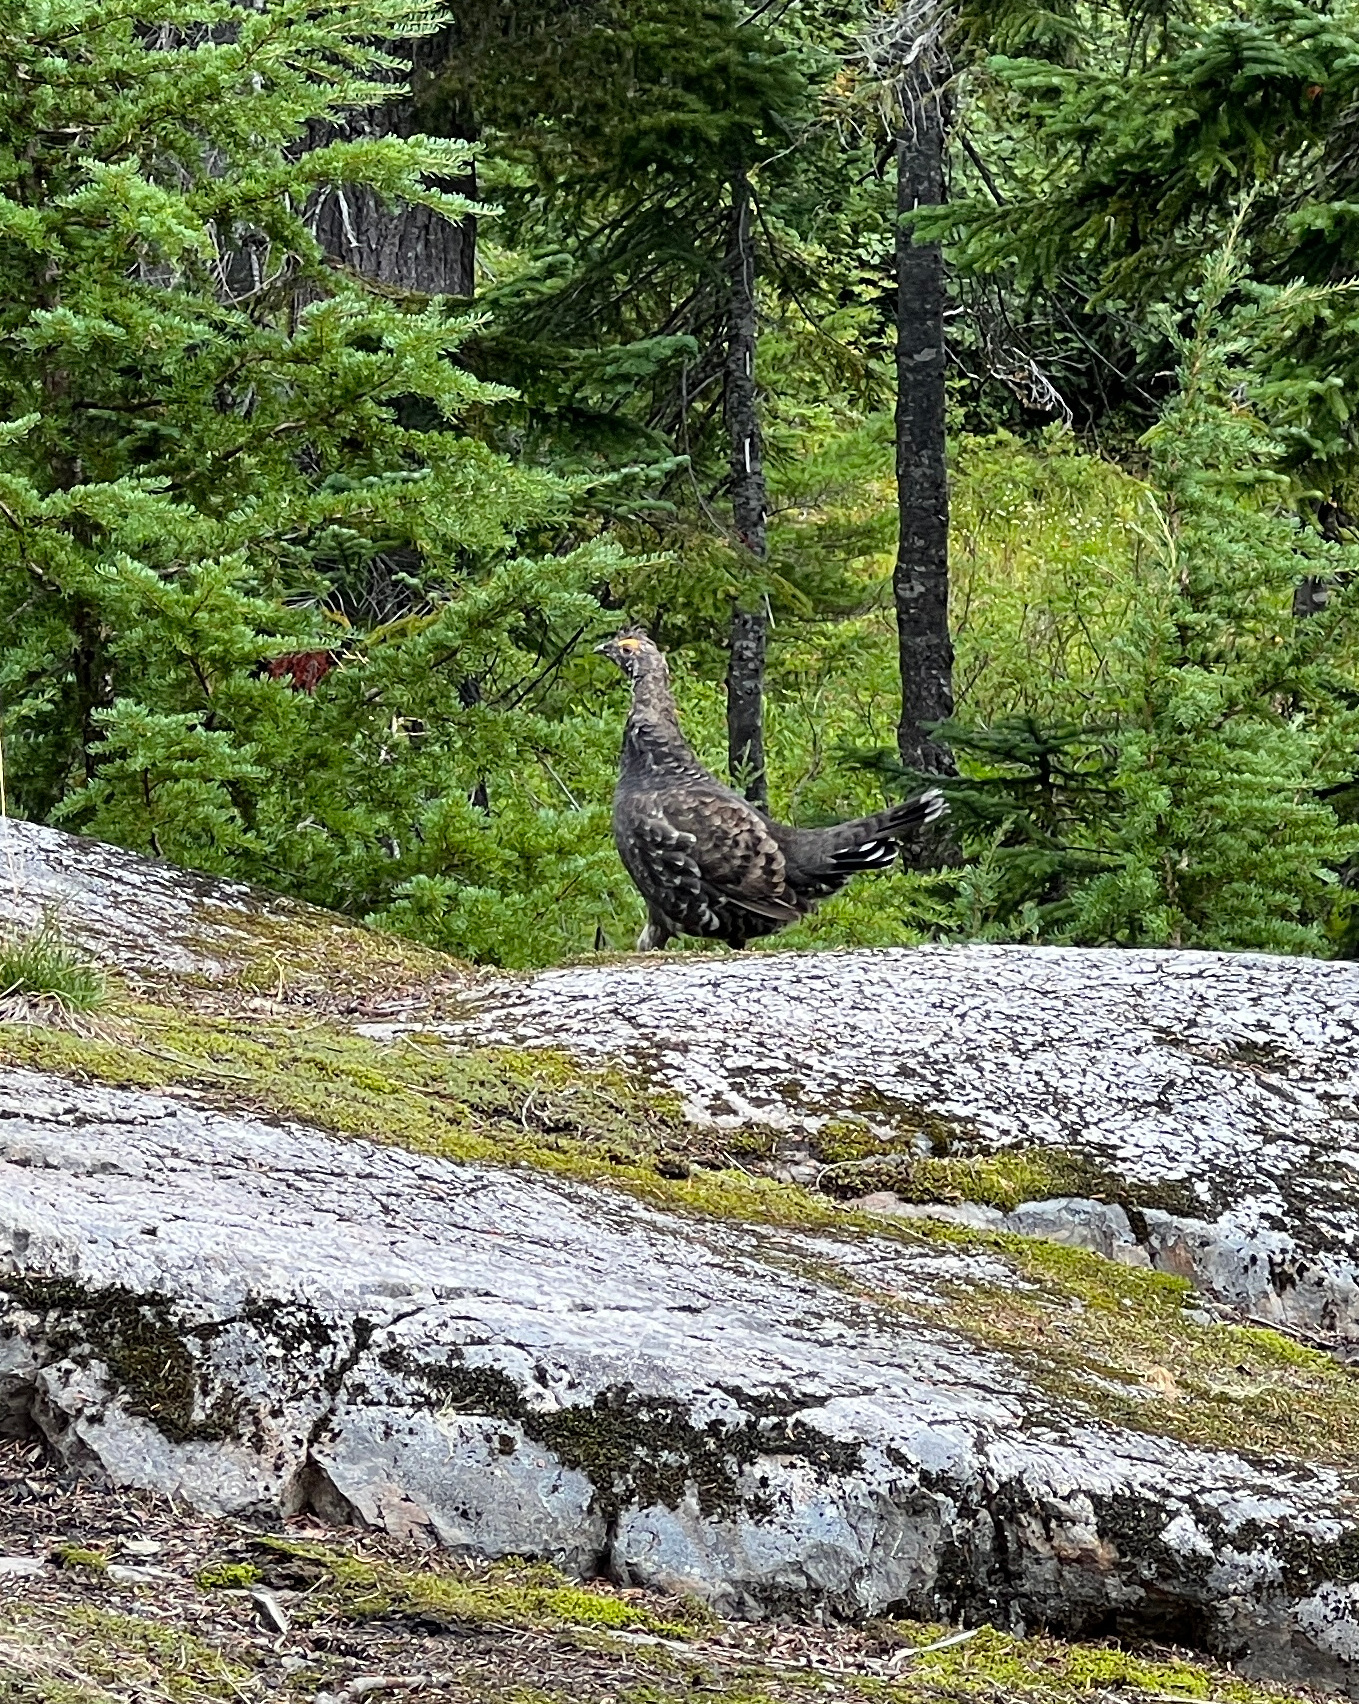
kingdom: Animalia
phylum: Chordata
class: Aves
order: Galliformes
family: Phasianidae
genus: Dendragapus
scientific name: Dendragapus fuliginosus
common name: Sooty grouse
